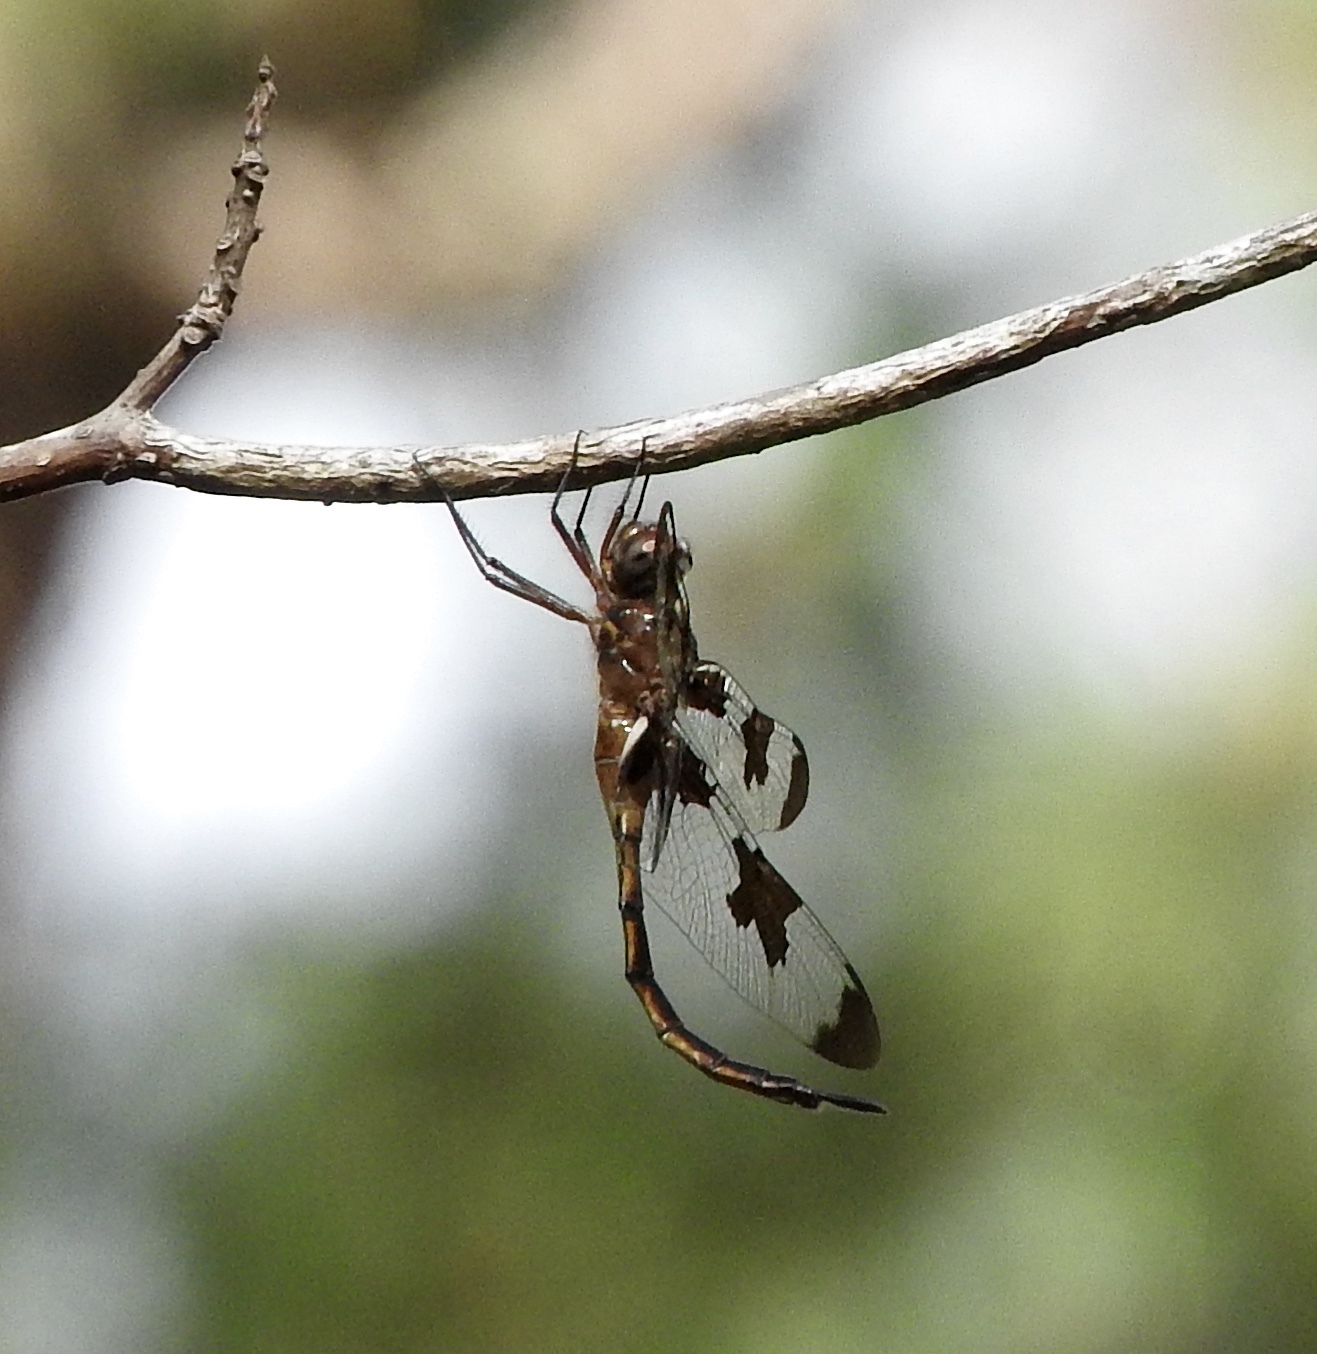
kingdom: Animalia
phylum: Arthropoda
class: Insecta
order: Odonata
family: Corduliidae
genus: Epitheca
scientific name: Epitheca princeps
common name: Prince baskettail
